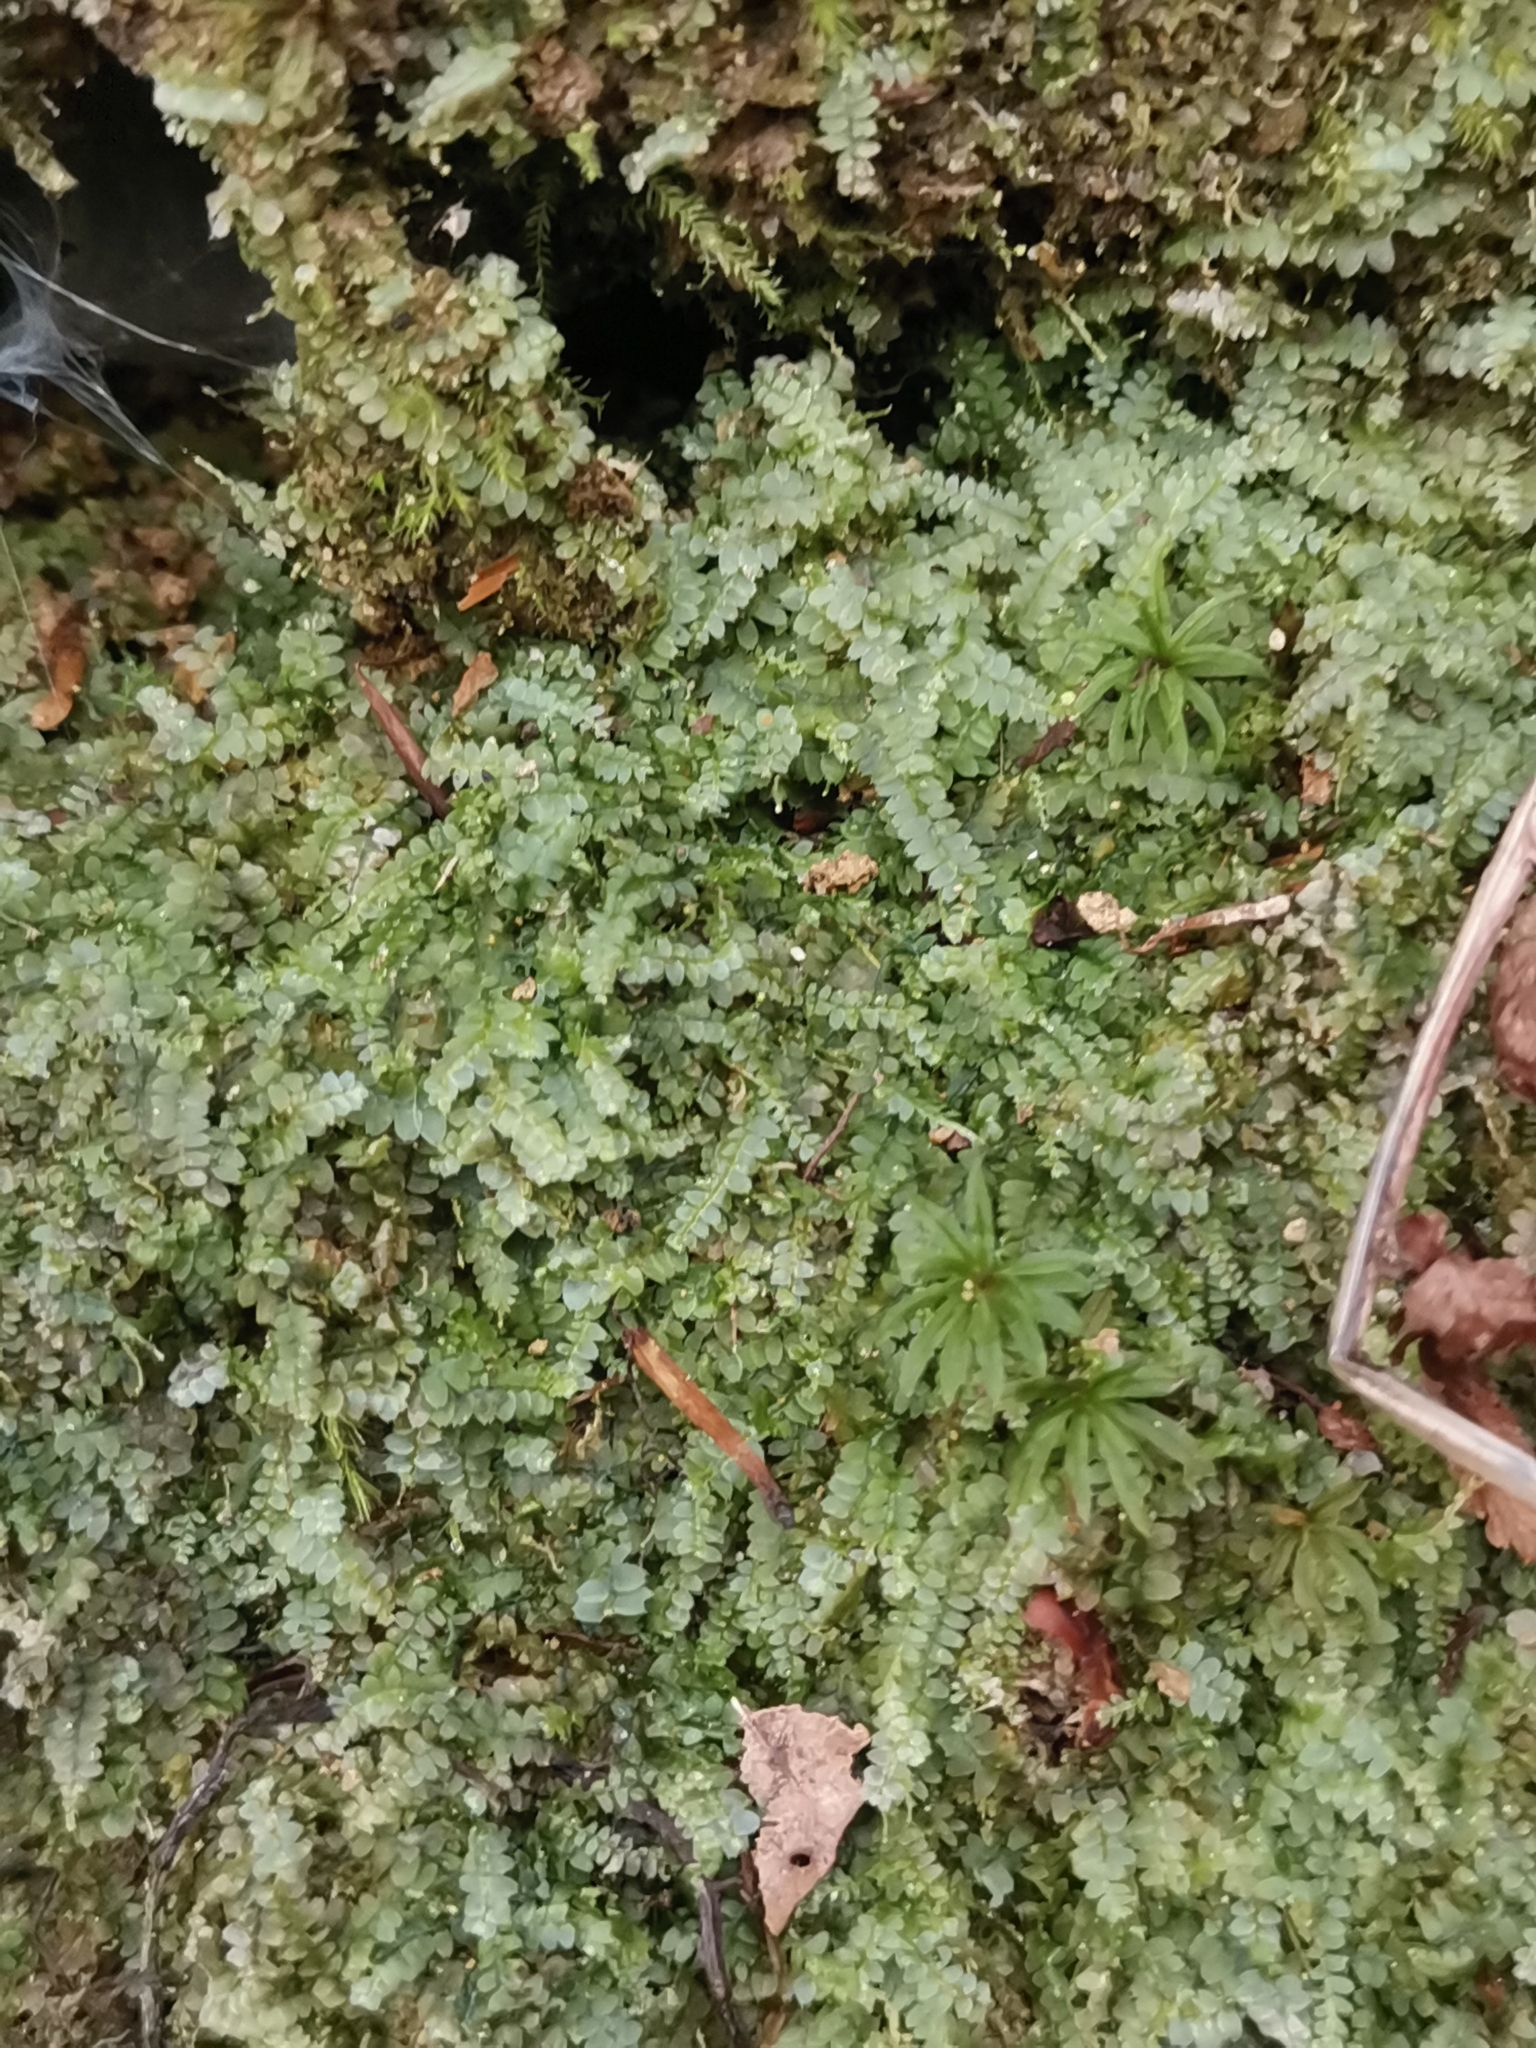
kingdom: Plantae
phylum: Marchantiophyta
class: Jungermanniopsida
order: Jungermanniales
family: Calypogeiaceae
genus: Asperifolia
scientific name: Asperifolia arguta
